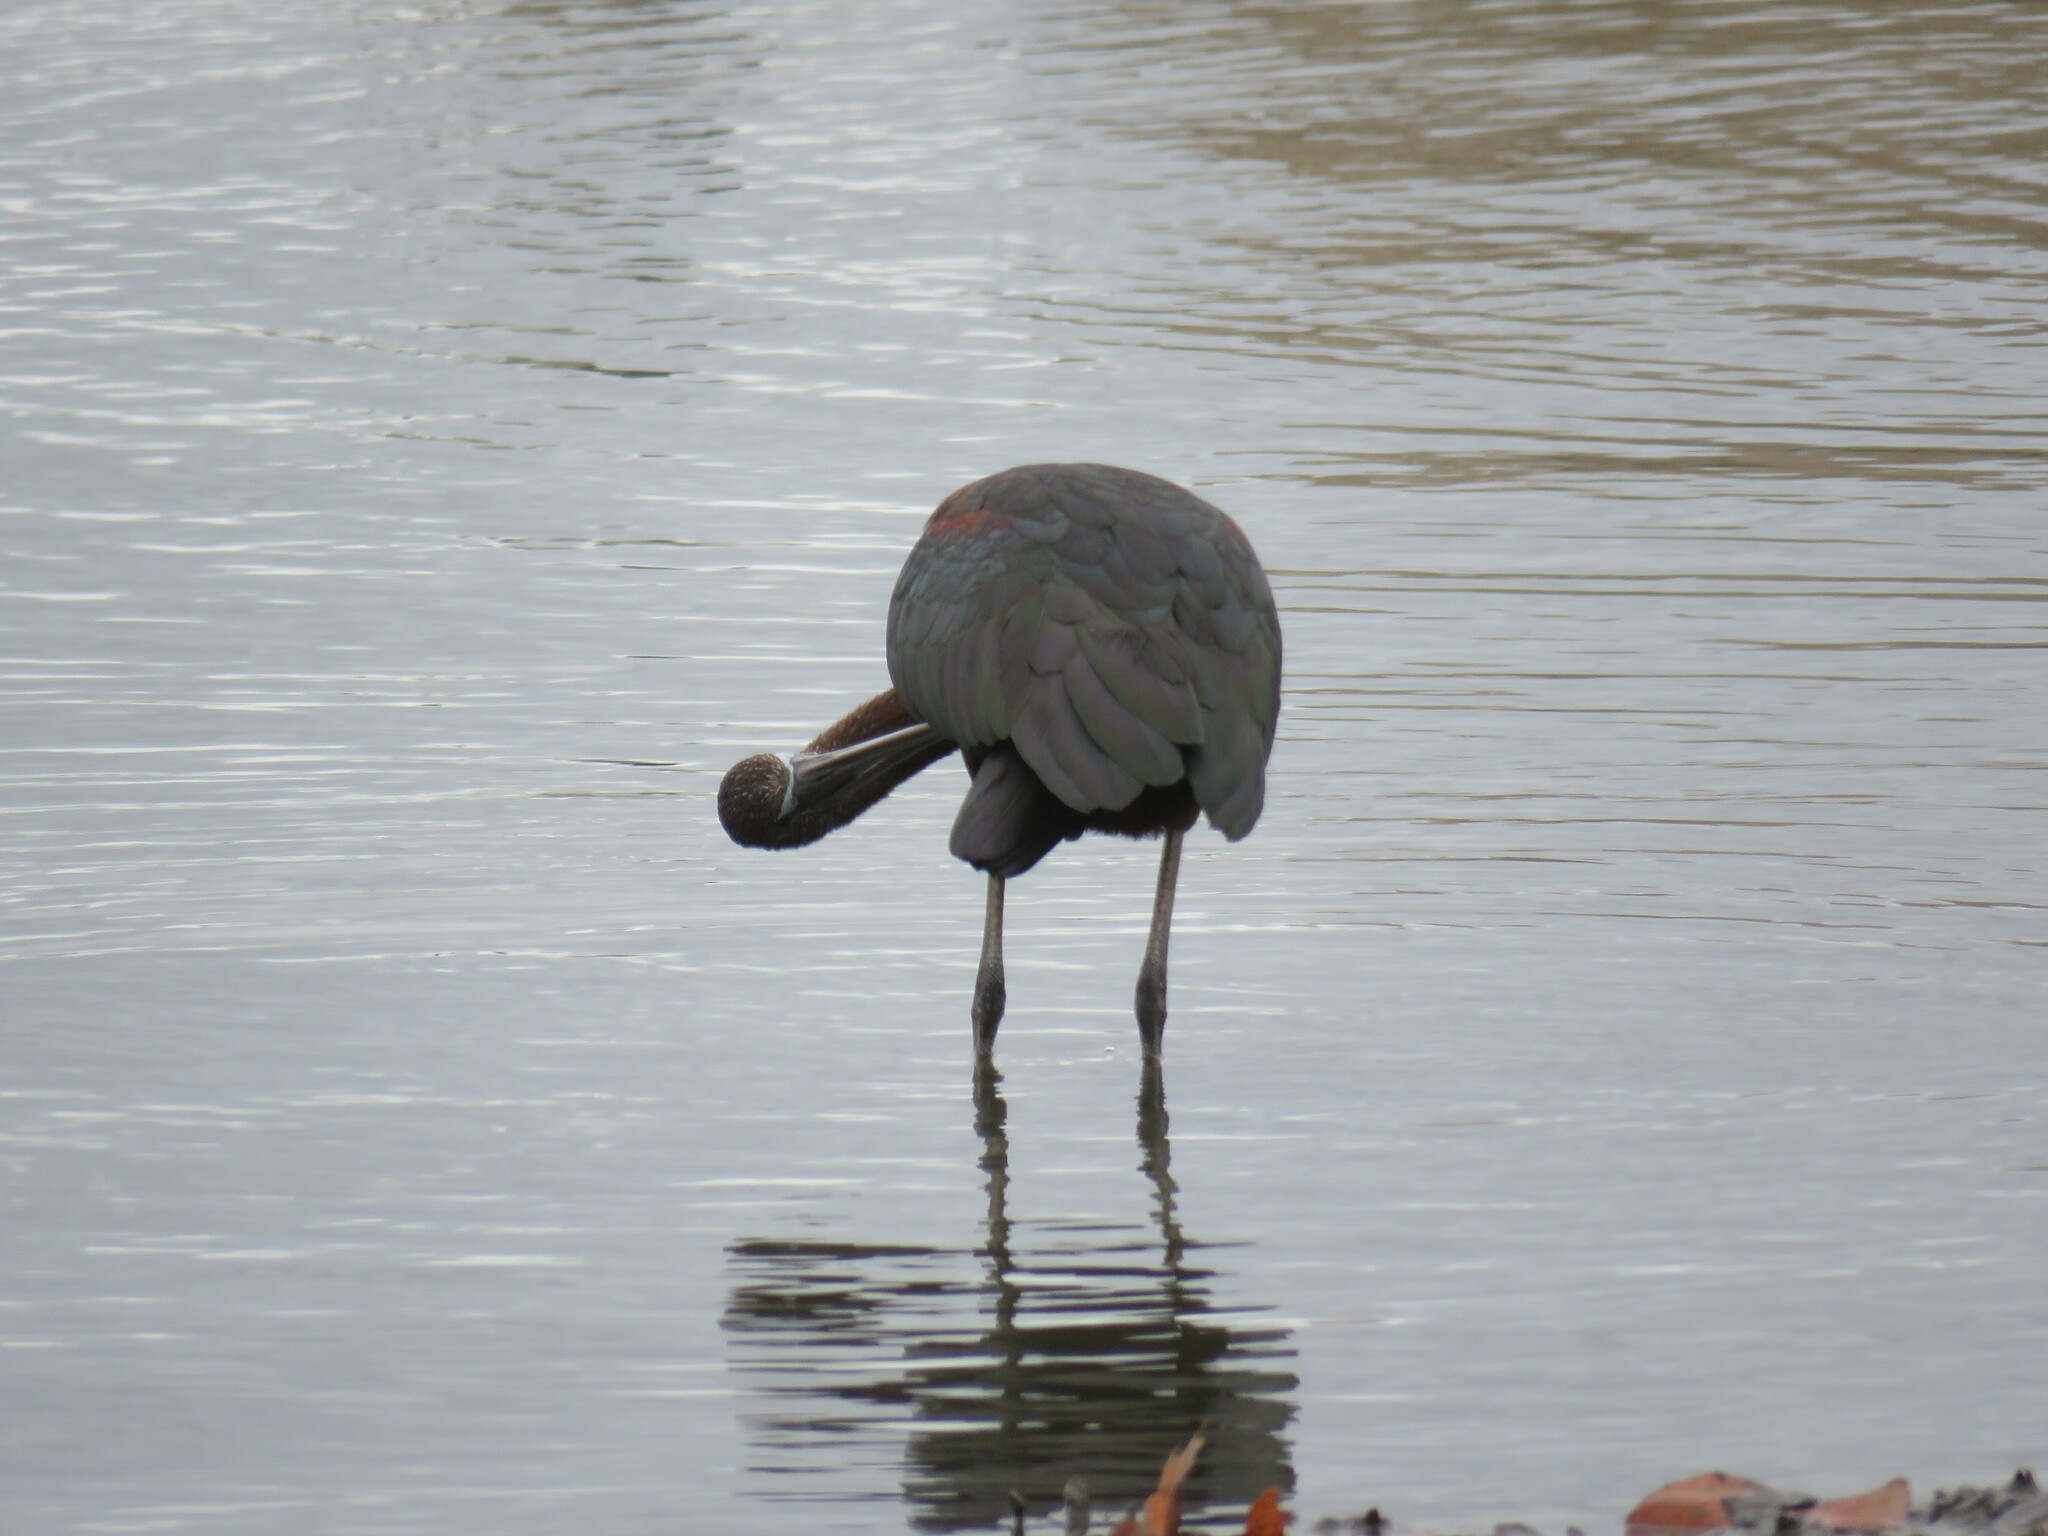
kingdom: Animalia
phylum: Chordata
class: Aves
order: Pelecaniformes
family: Threskiornithidae
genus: Plegadis
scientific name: Plegadis falcinellus
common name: Glossy ibis
